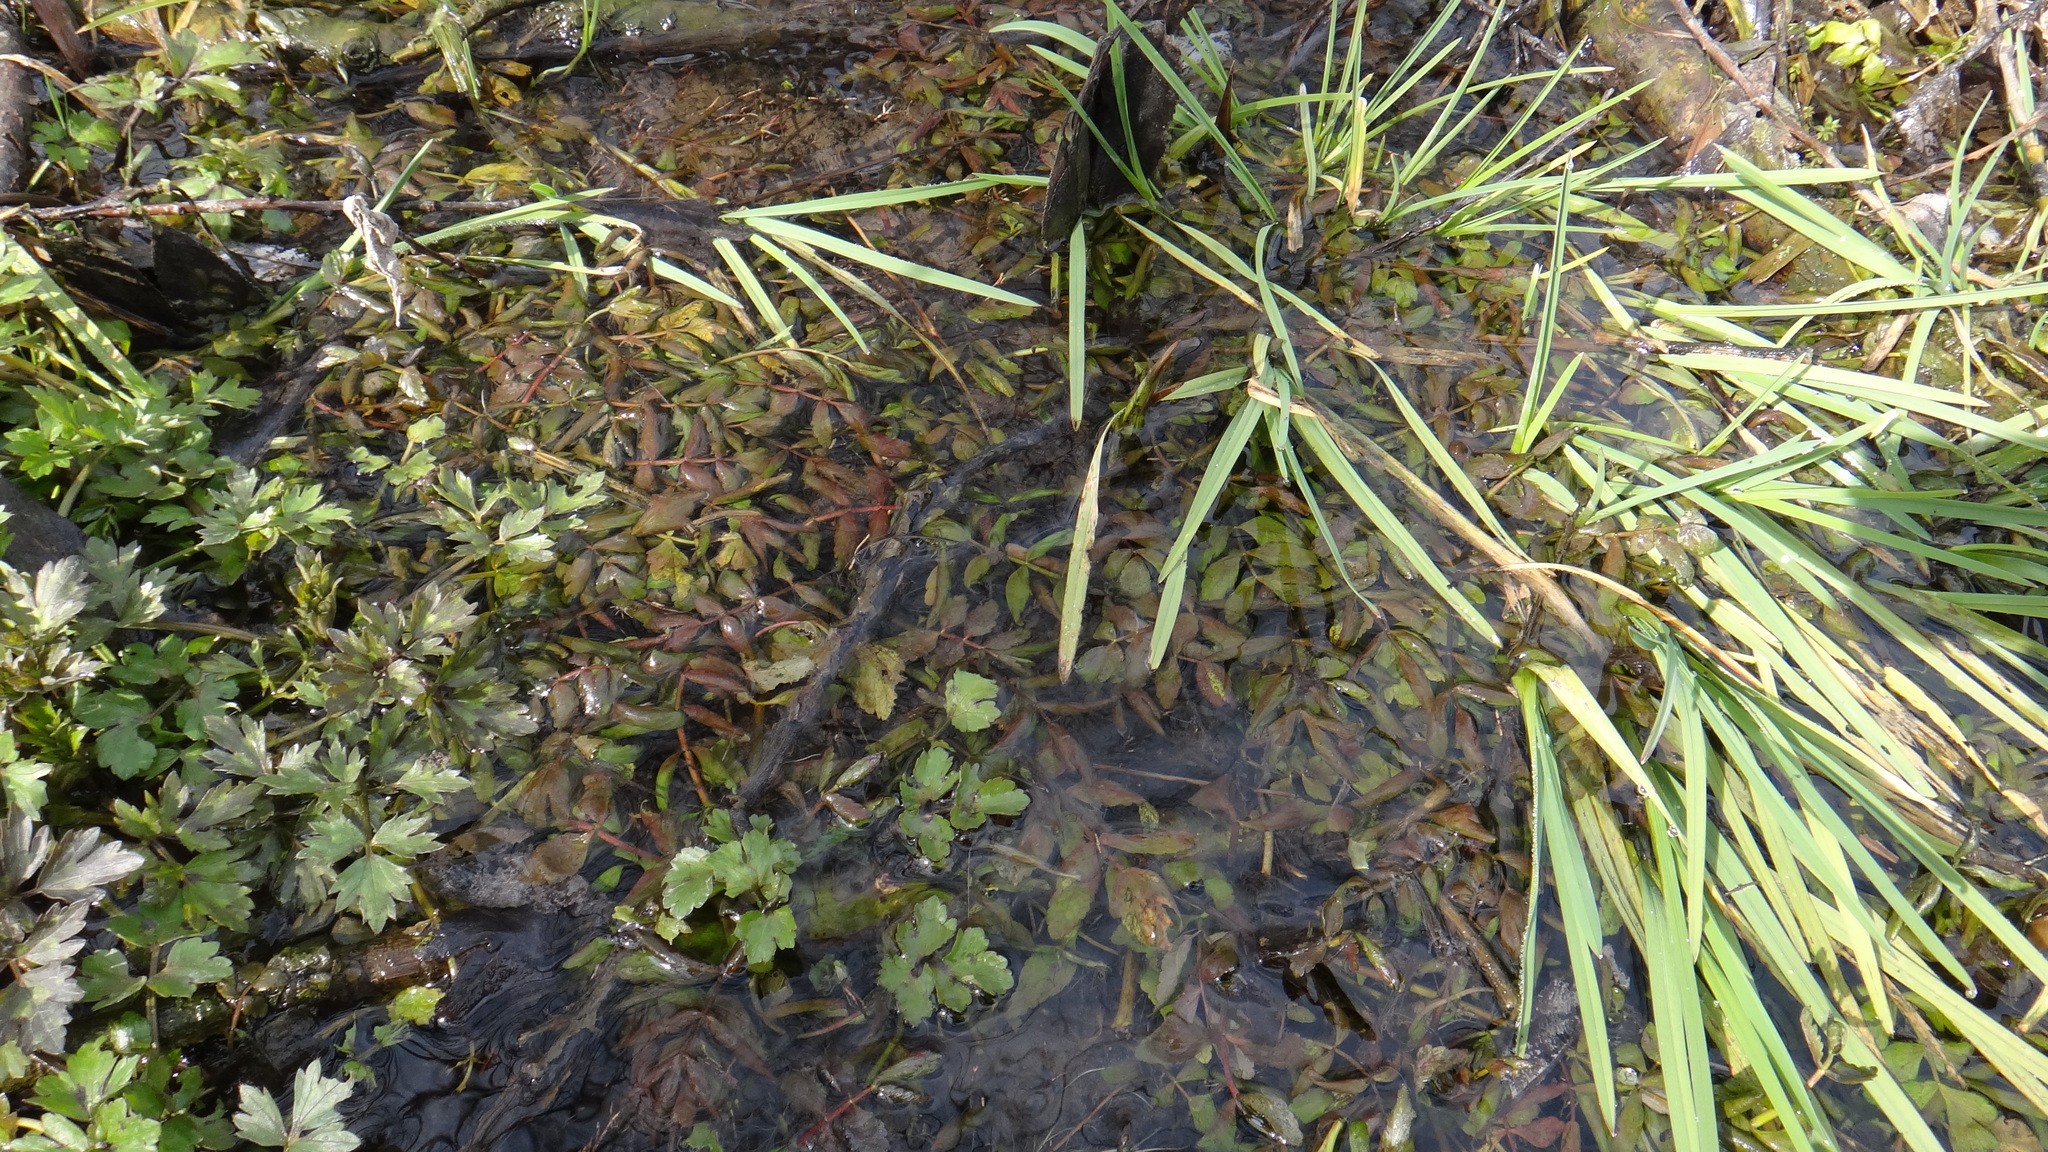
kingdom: Plantae
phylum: Tracheophyta
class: Magnoliopsida
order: Apiales
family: Apiaceae
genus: Berula
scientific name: Berula erecta
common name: Lesser water-parsnip
